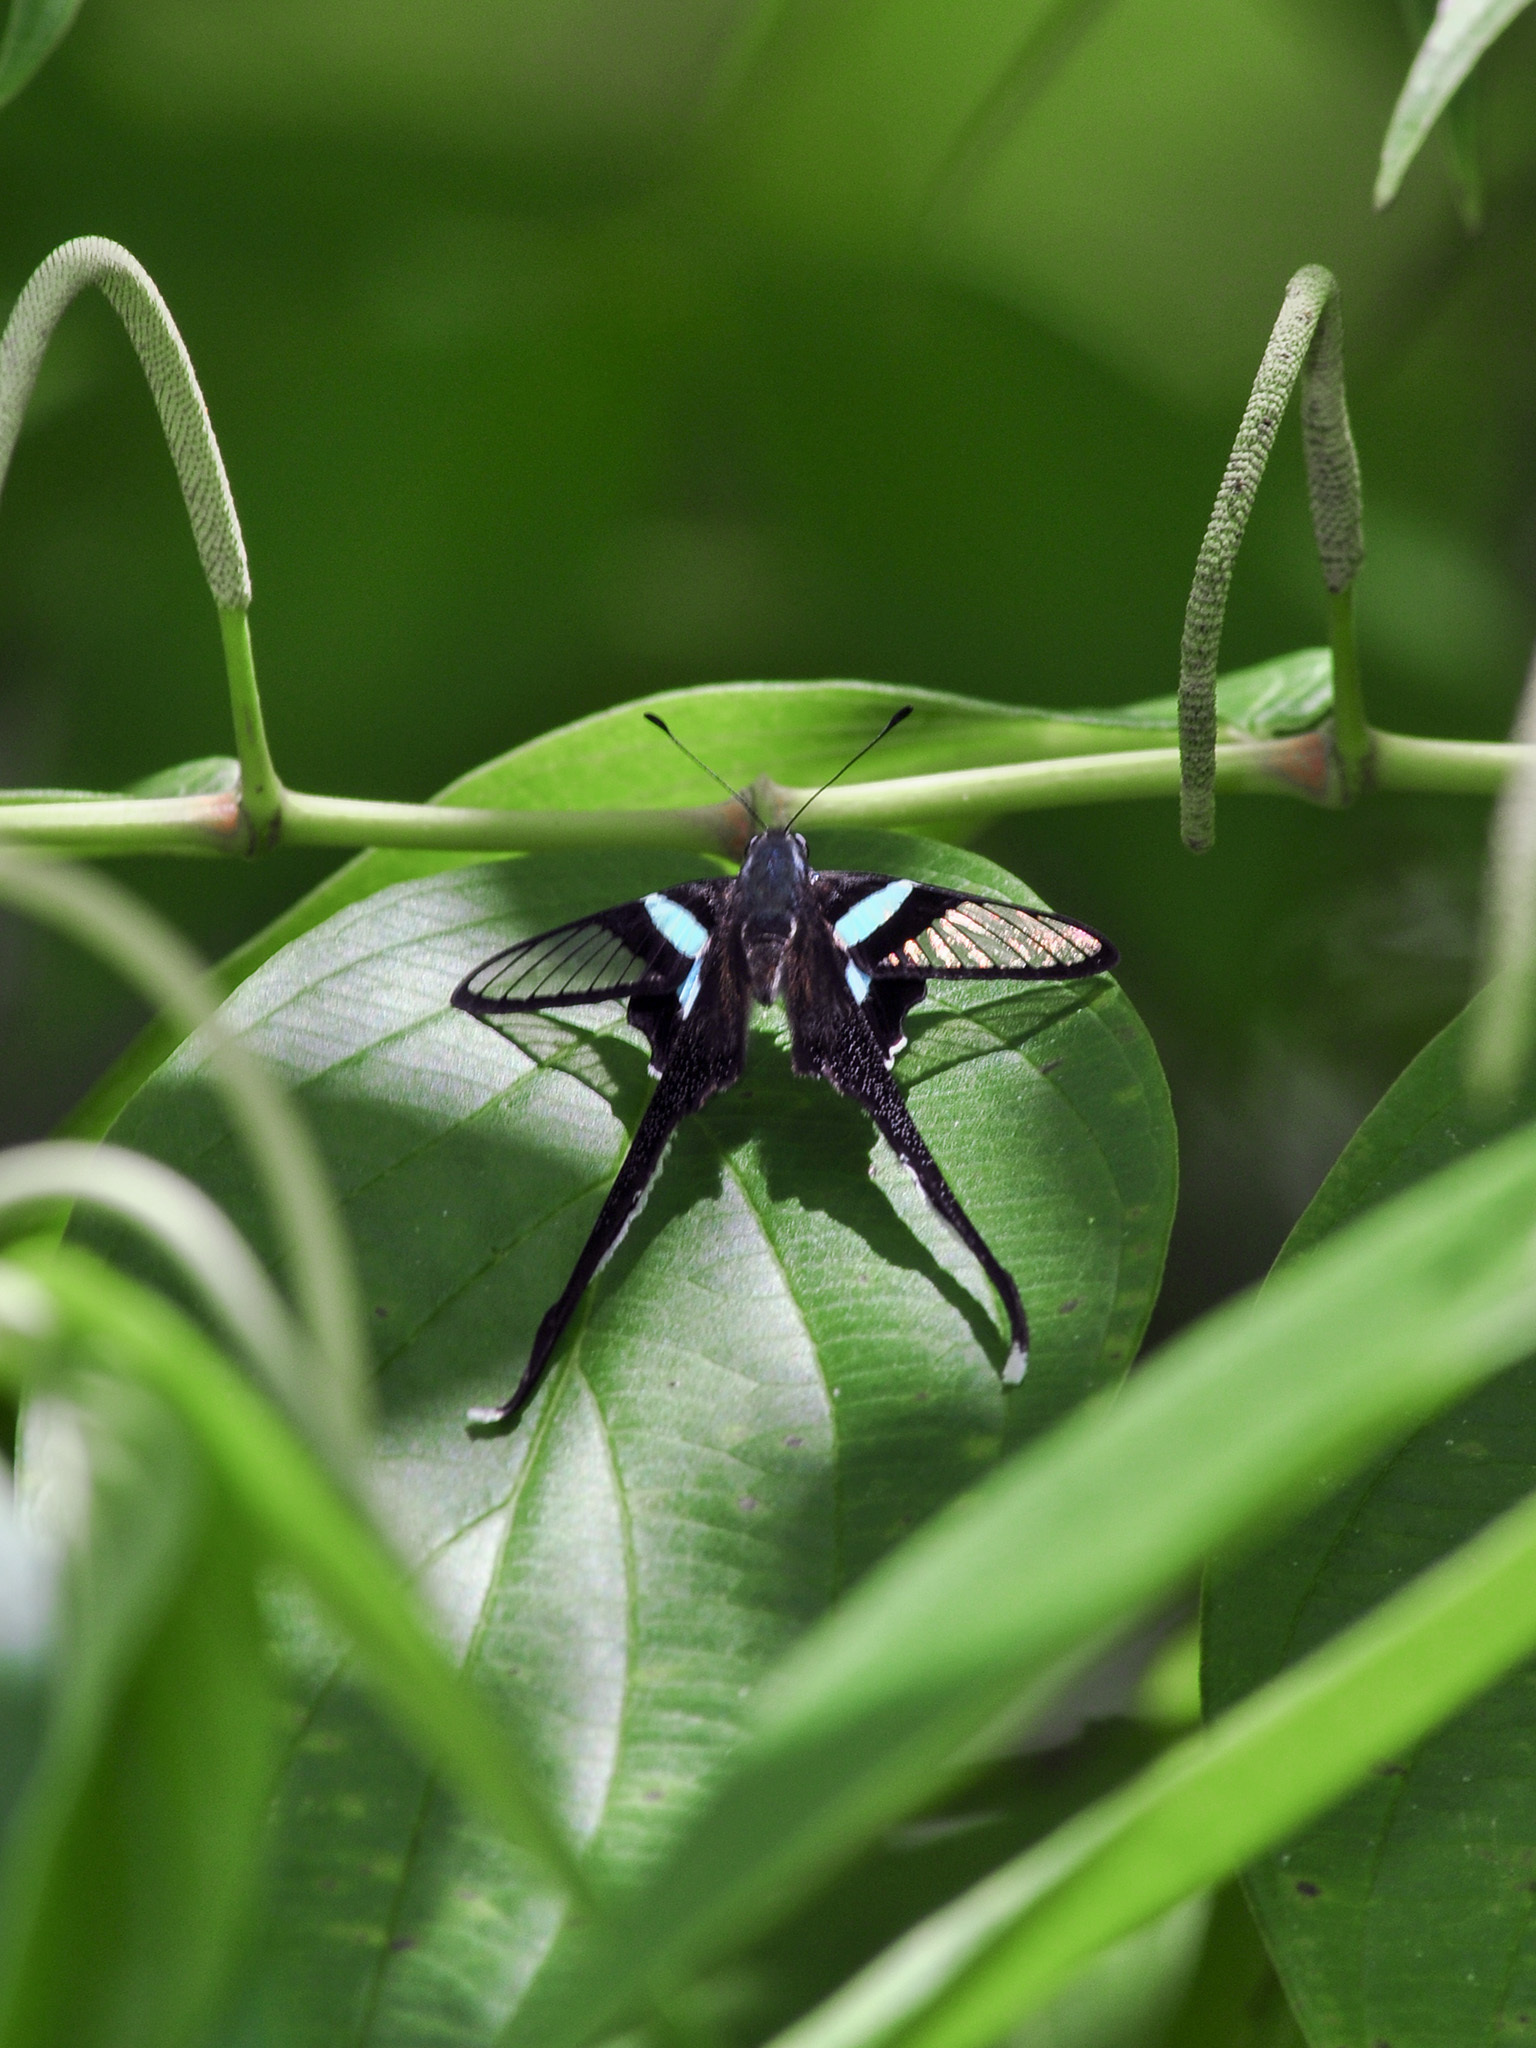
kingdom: Animalia
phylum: Arthropoda
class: Insecta
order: Lepidoptera
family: Papilionidae
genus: Lamproptera
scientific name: Lamproptera meges
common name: Green dragontail
